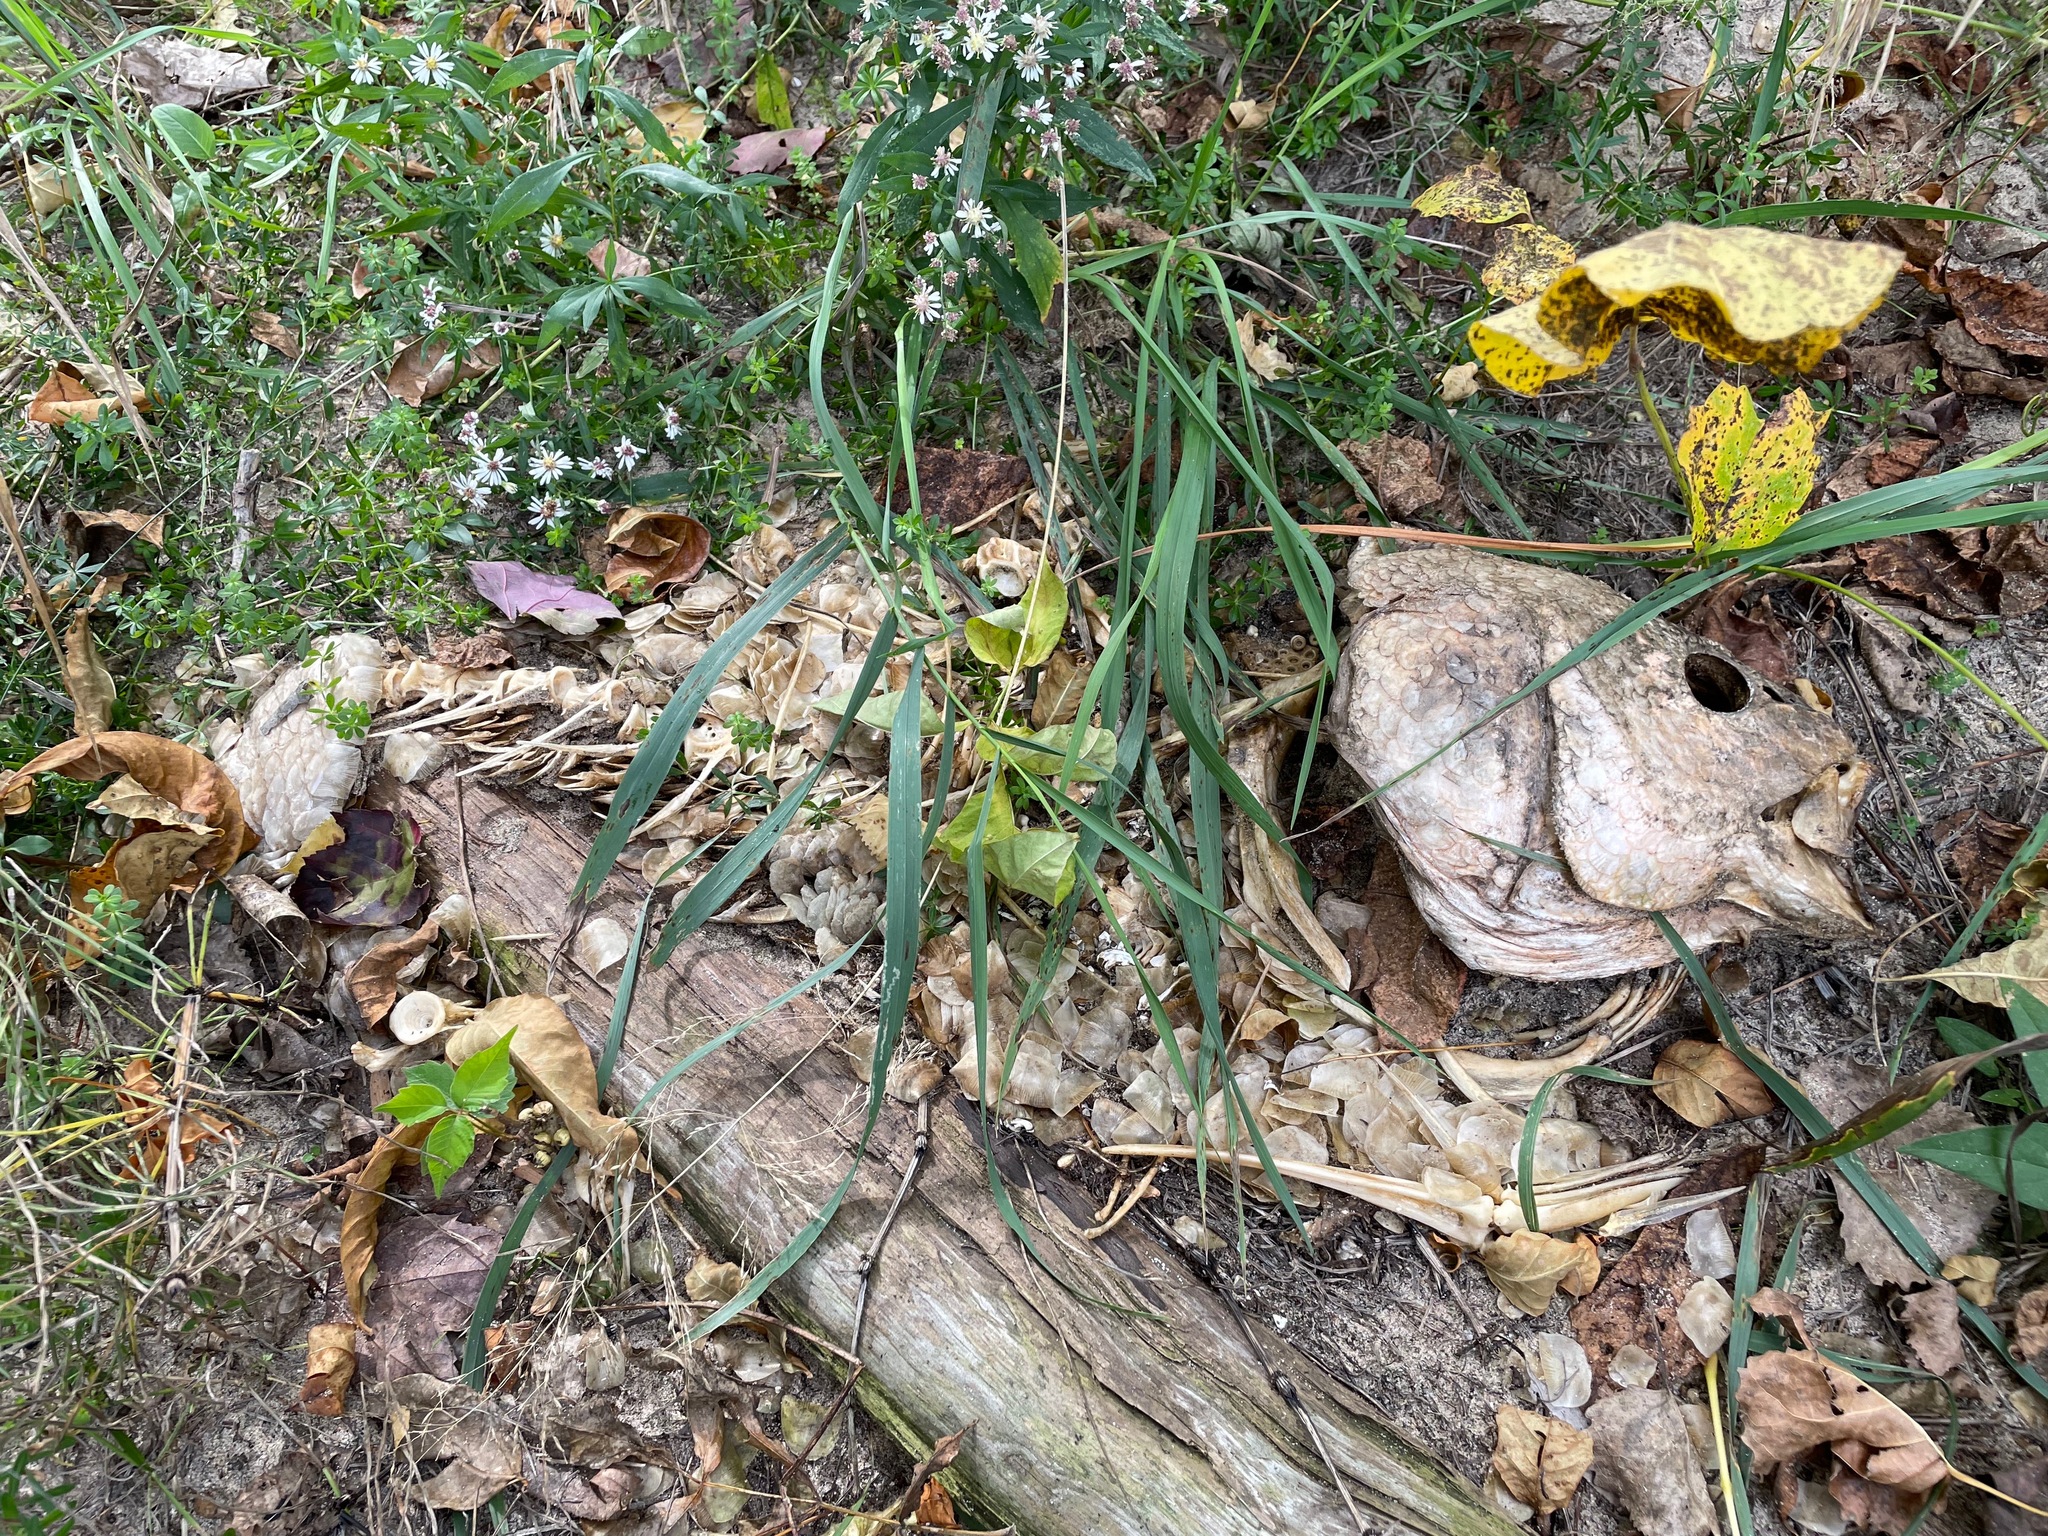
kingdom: Animalia
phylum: Chordata
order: Perciformes
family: Sciaenidae
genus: Aplodinotus
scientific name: Aplodinotus grunniens
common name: Freshwater drum
